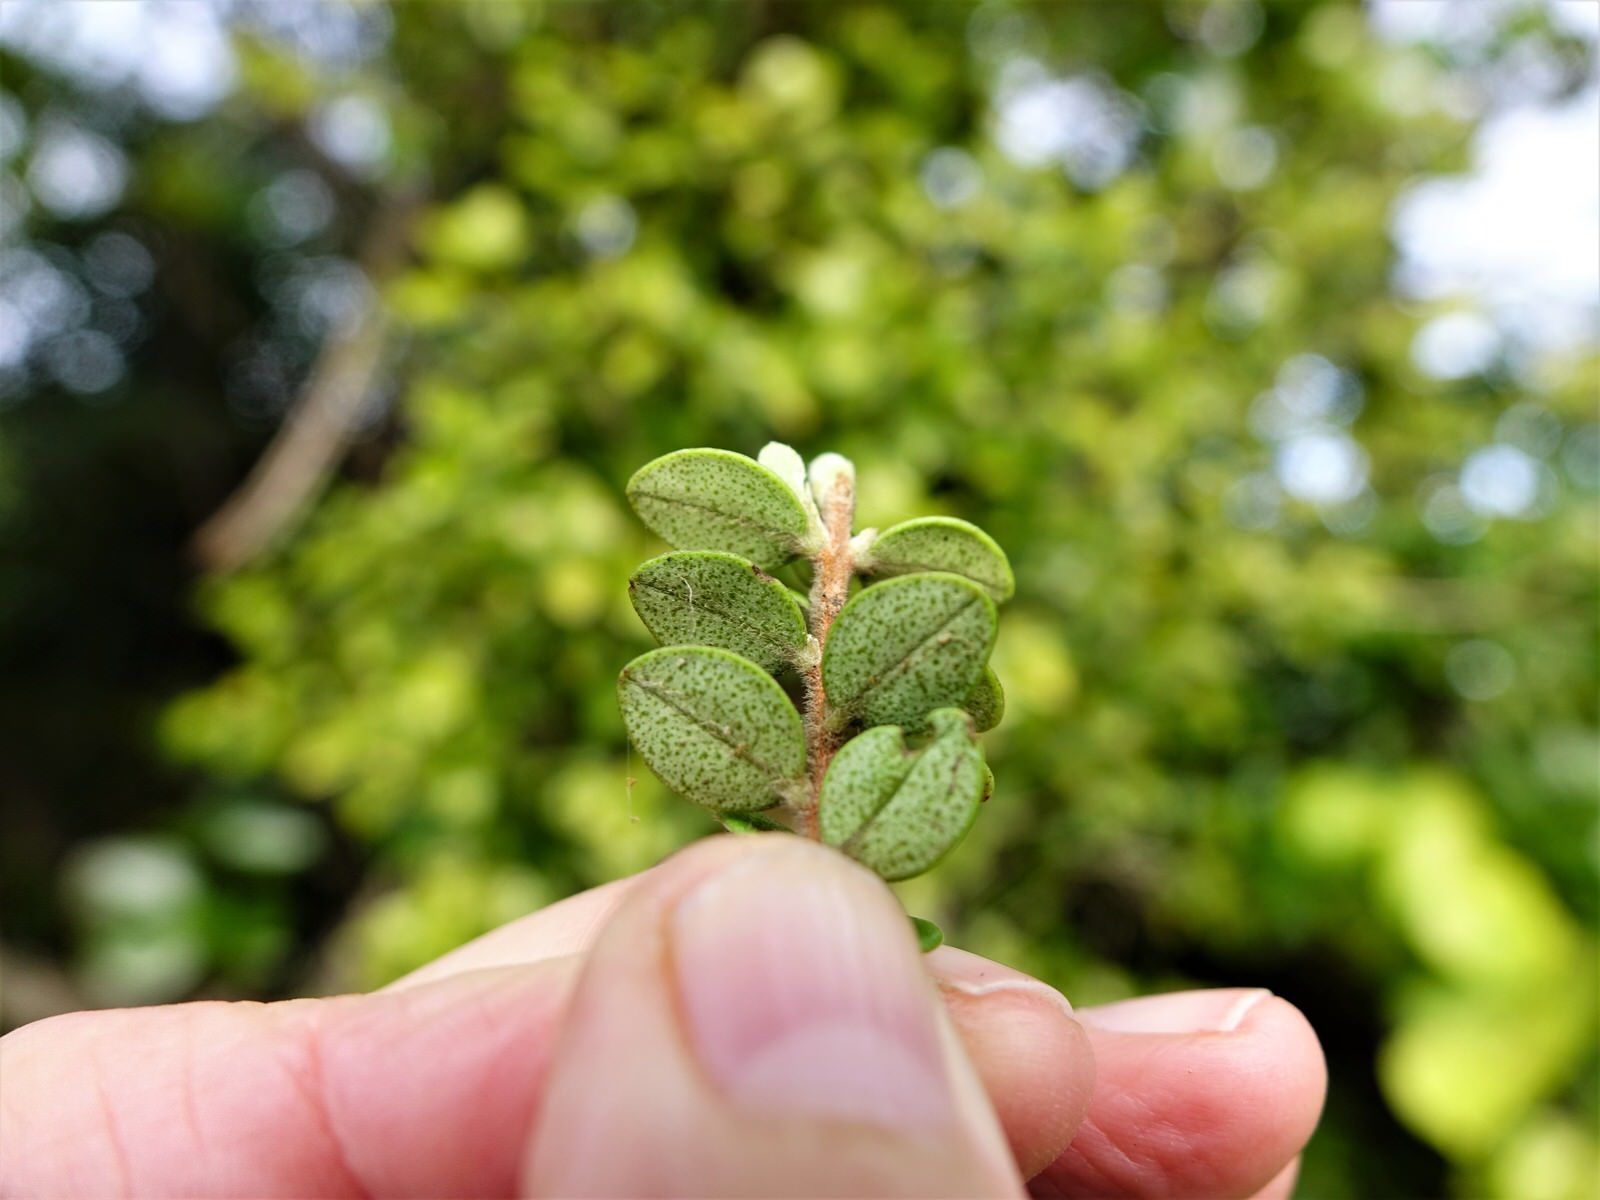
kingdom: Plantae
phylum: Tracheophyta
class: Magnoliopsida
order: Myrtales
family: Myrtaceae
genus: Metrosideros
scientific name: Metrosideros perforata
